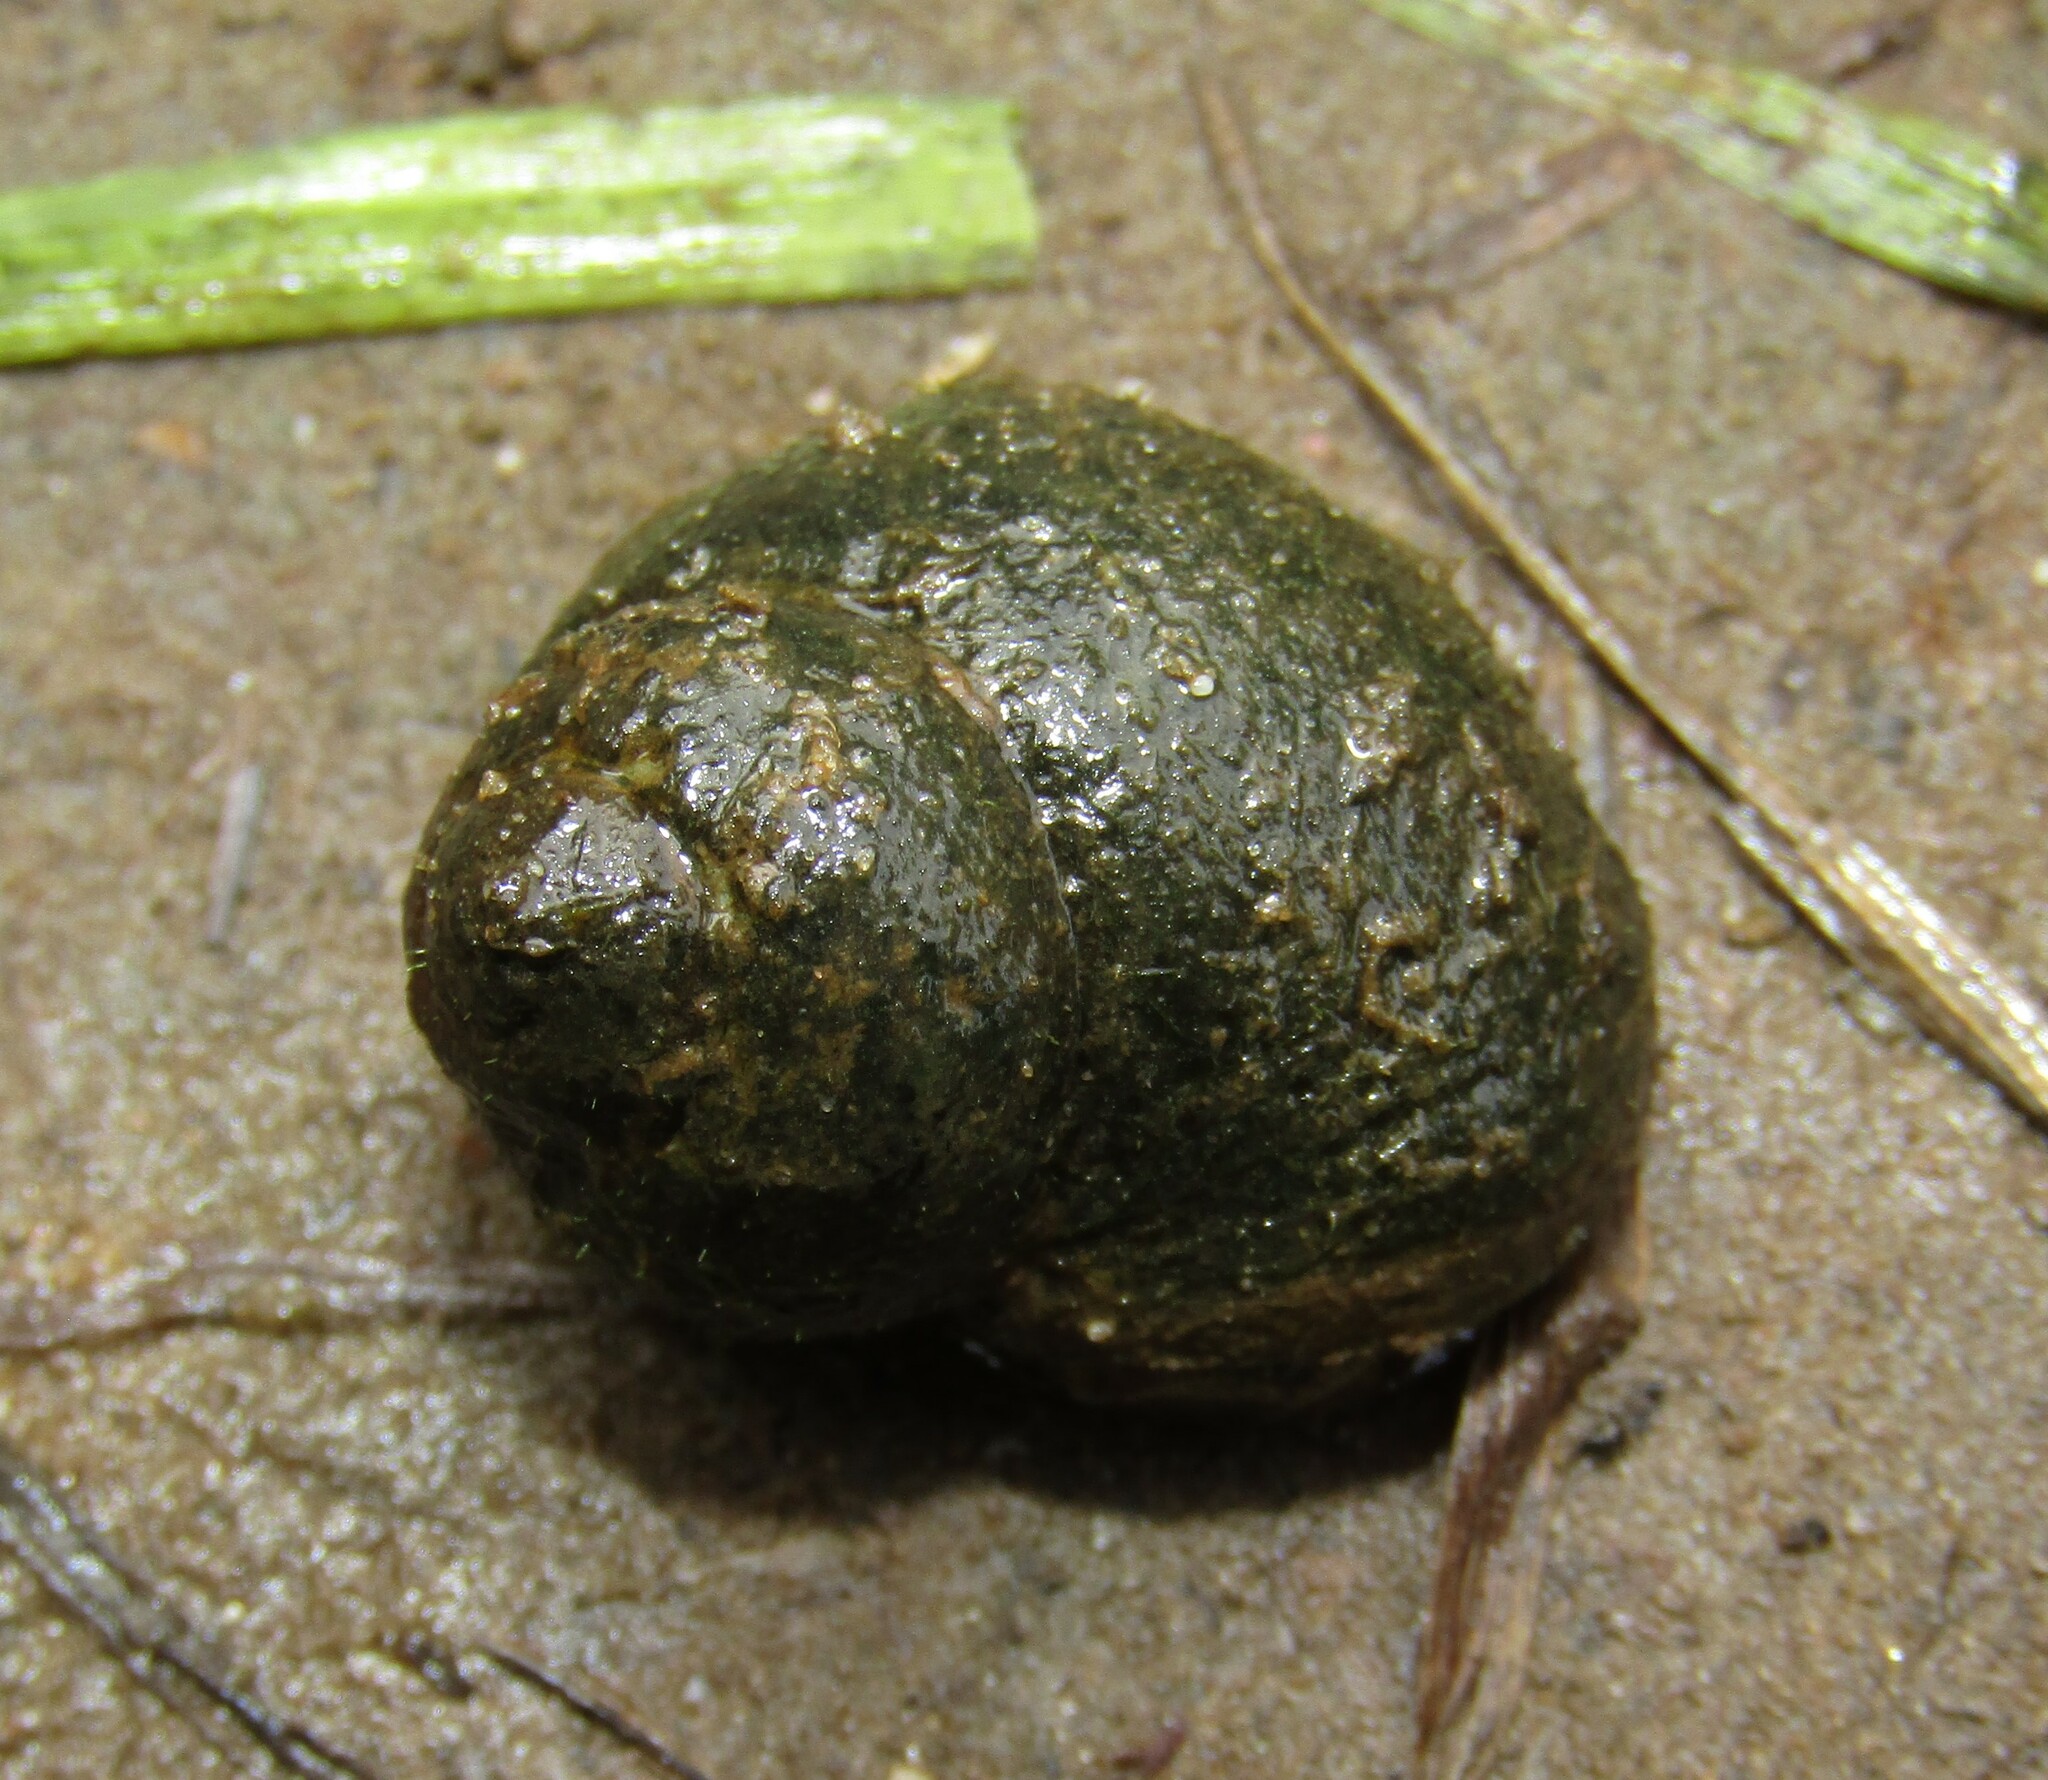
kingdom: Animalia
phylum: Mollusca
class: Gastropoda
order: Architaenioglossa
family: Viviparidae
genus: Viviparus
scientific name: Viviparus viviparus
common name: River snail
